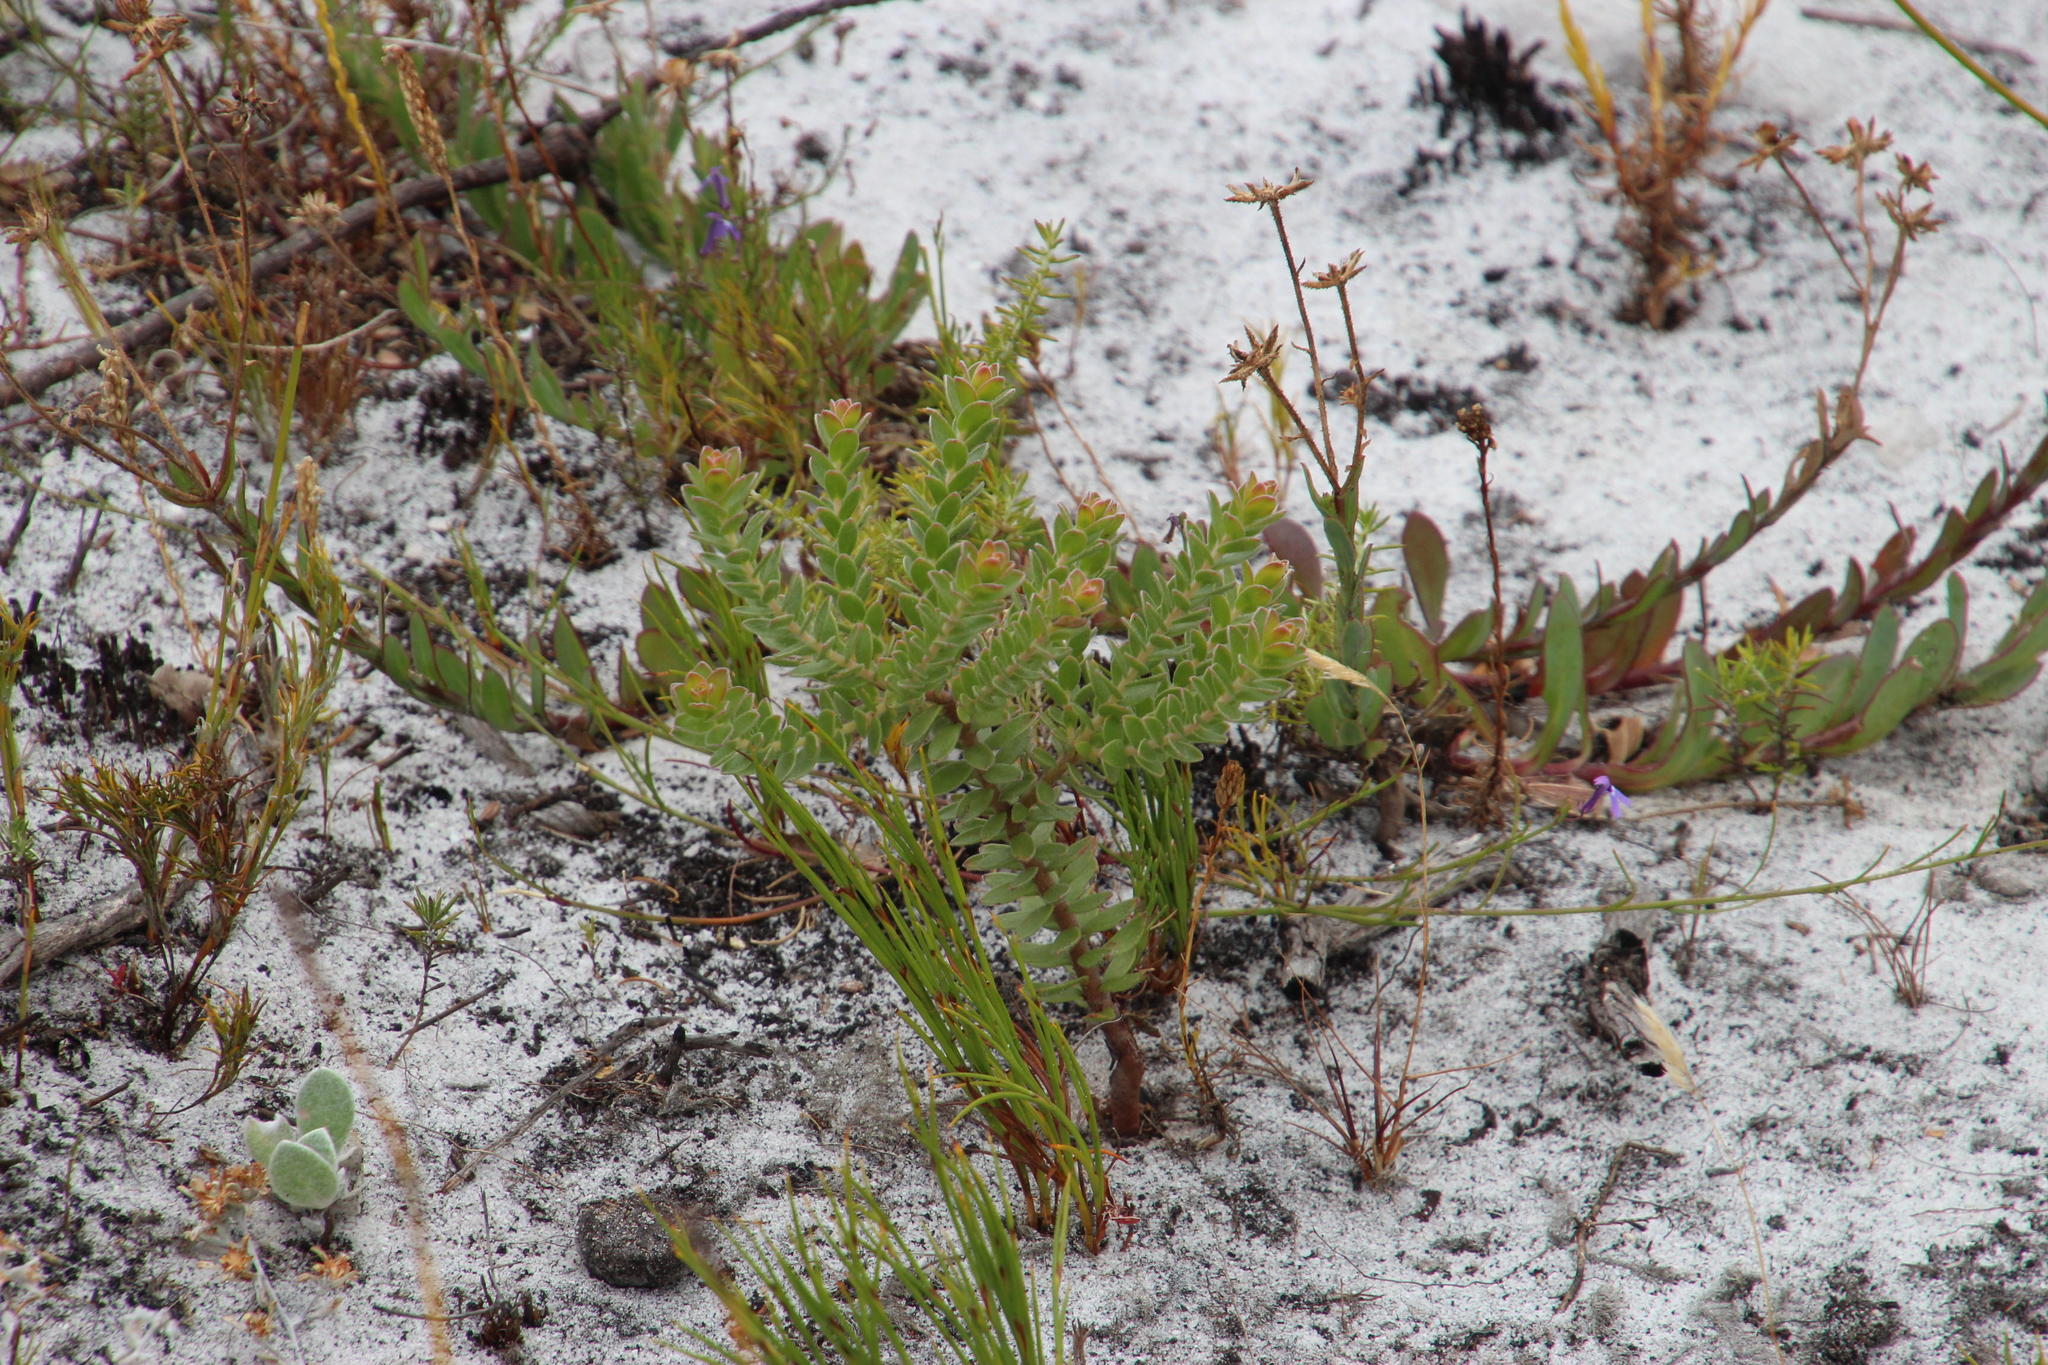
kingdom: Plantae
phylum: Tracheophyta
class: Magnoliopsida
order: Proteales
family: Proteaceae
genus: Diastella
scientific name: Diastella divaricata
